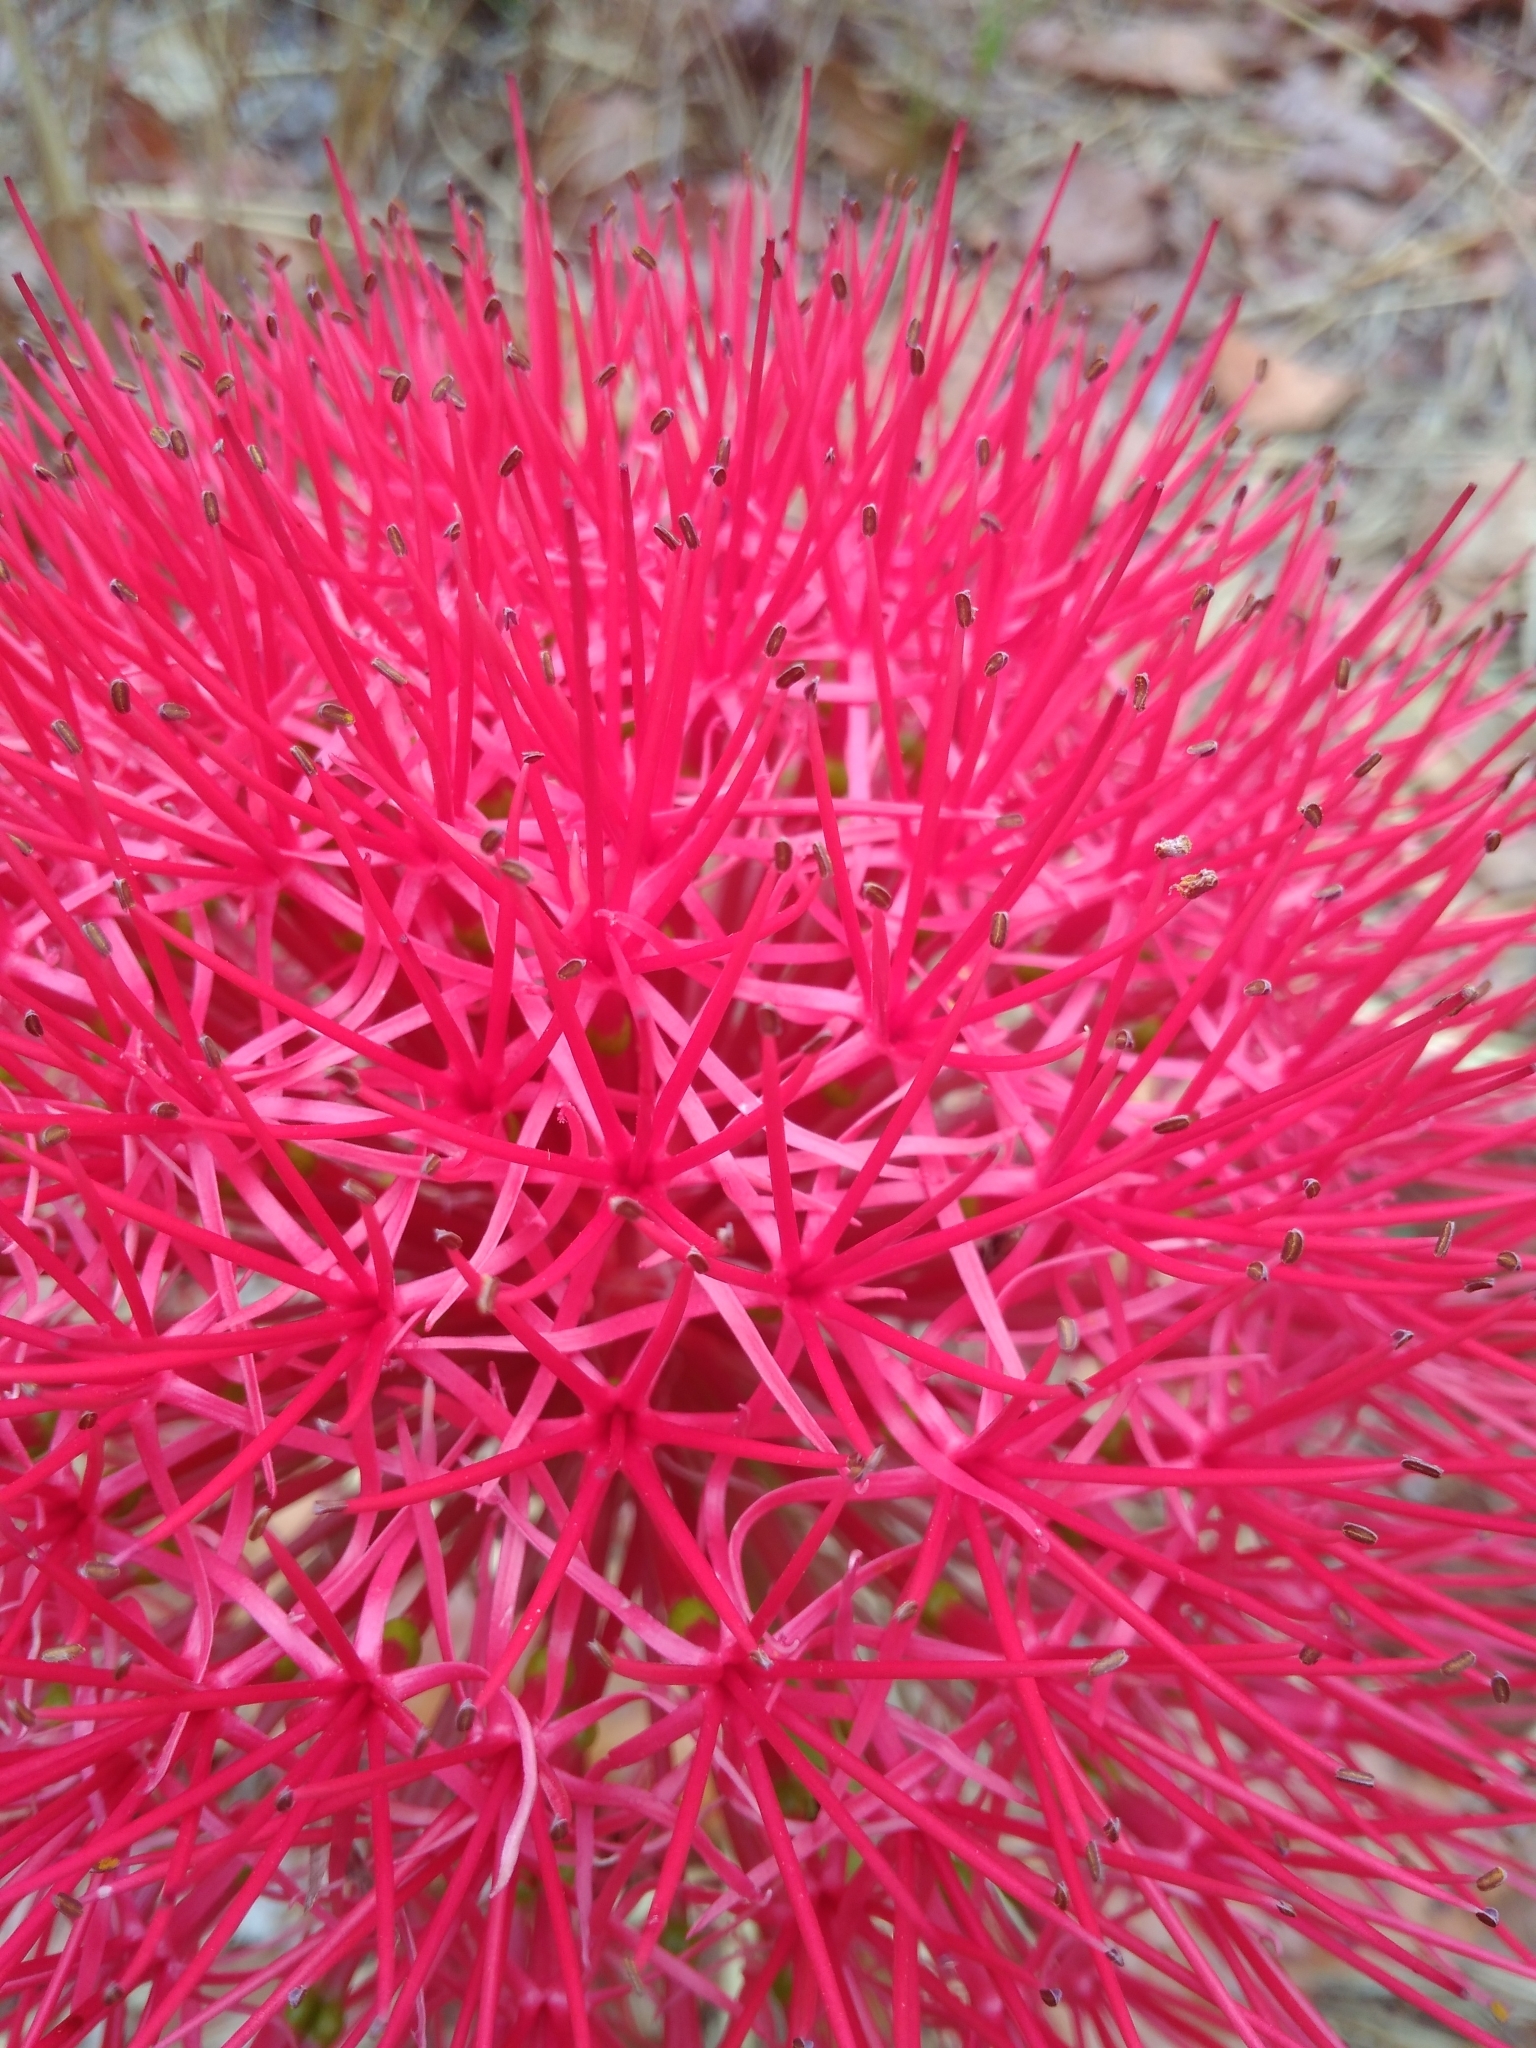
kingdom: Plantae
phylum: Tracheophyta
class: Liliopsida
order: Asparagales
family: Amaryllidaceae
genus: Scadoxus
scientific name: Scadoxus multiflorus
